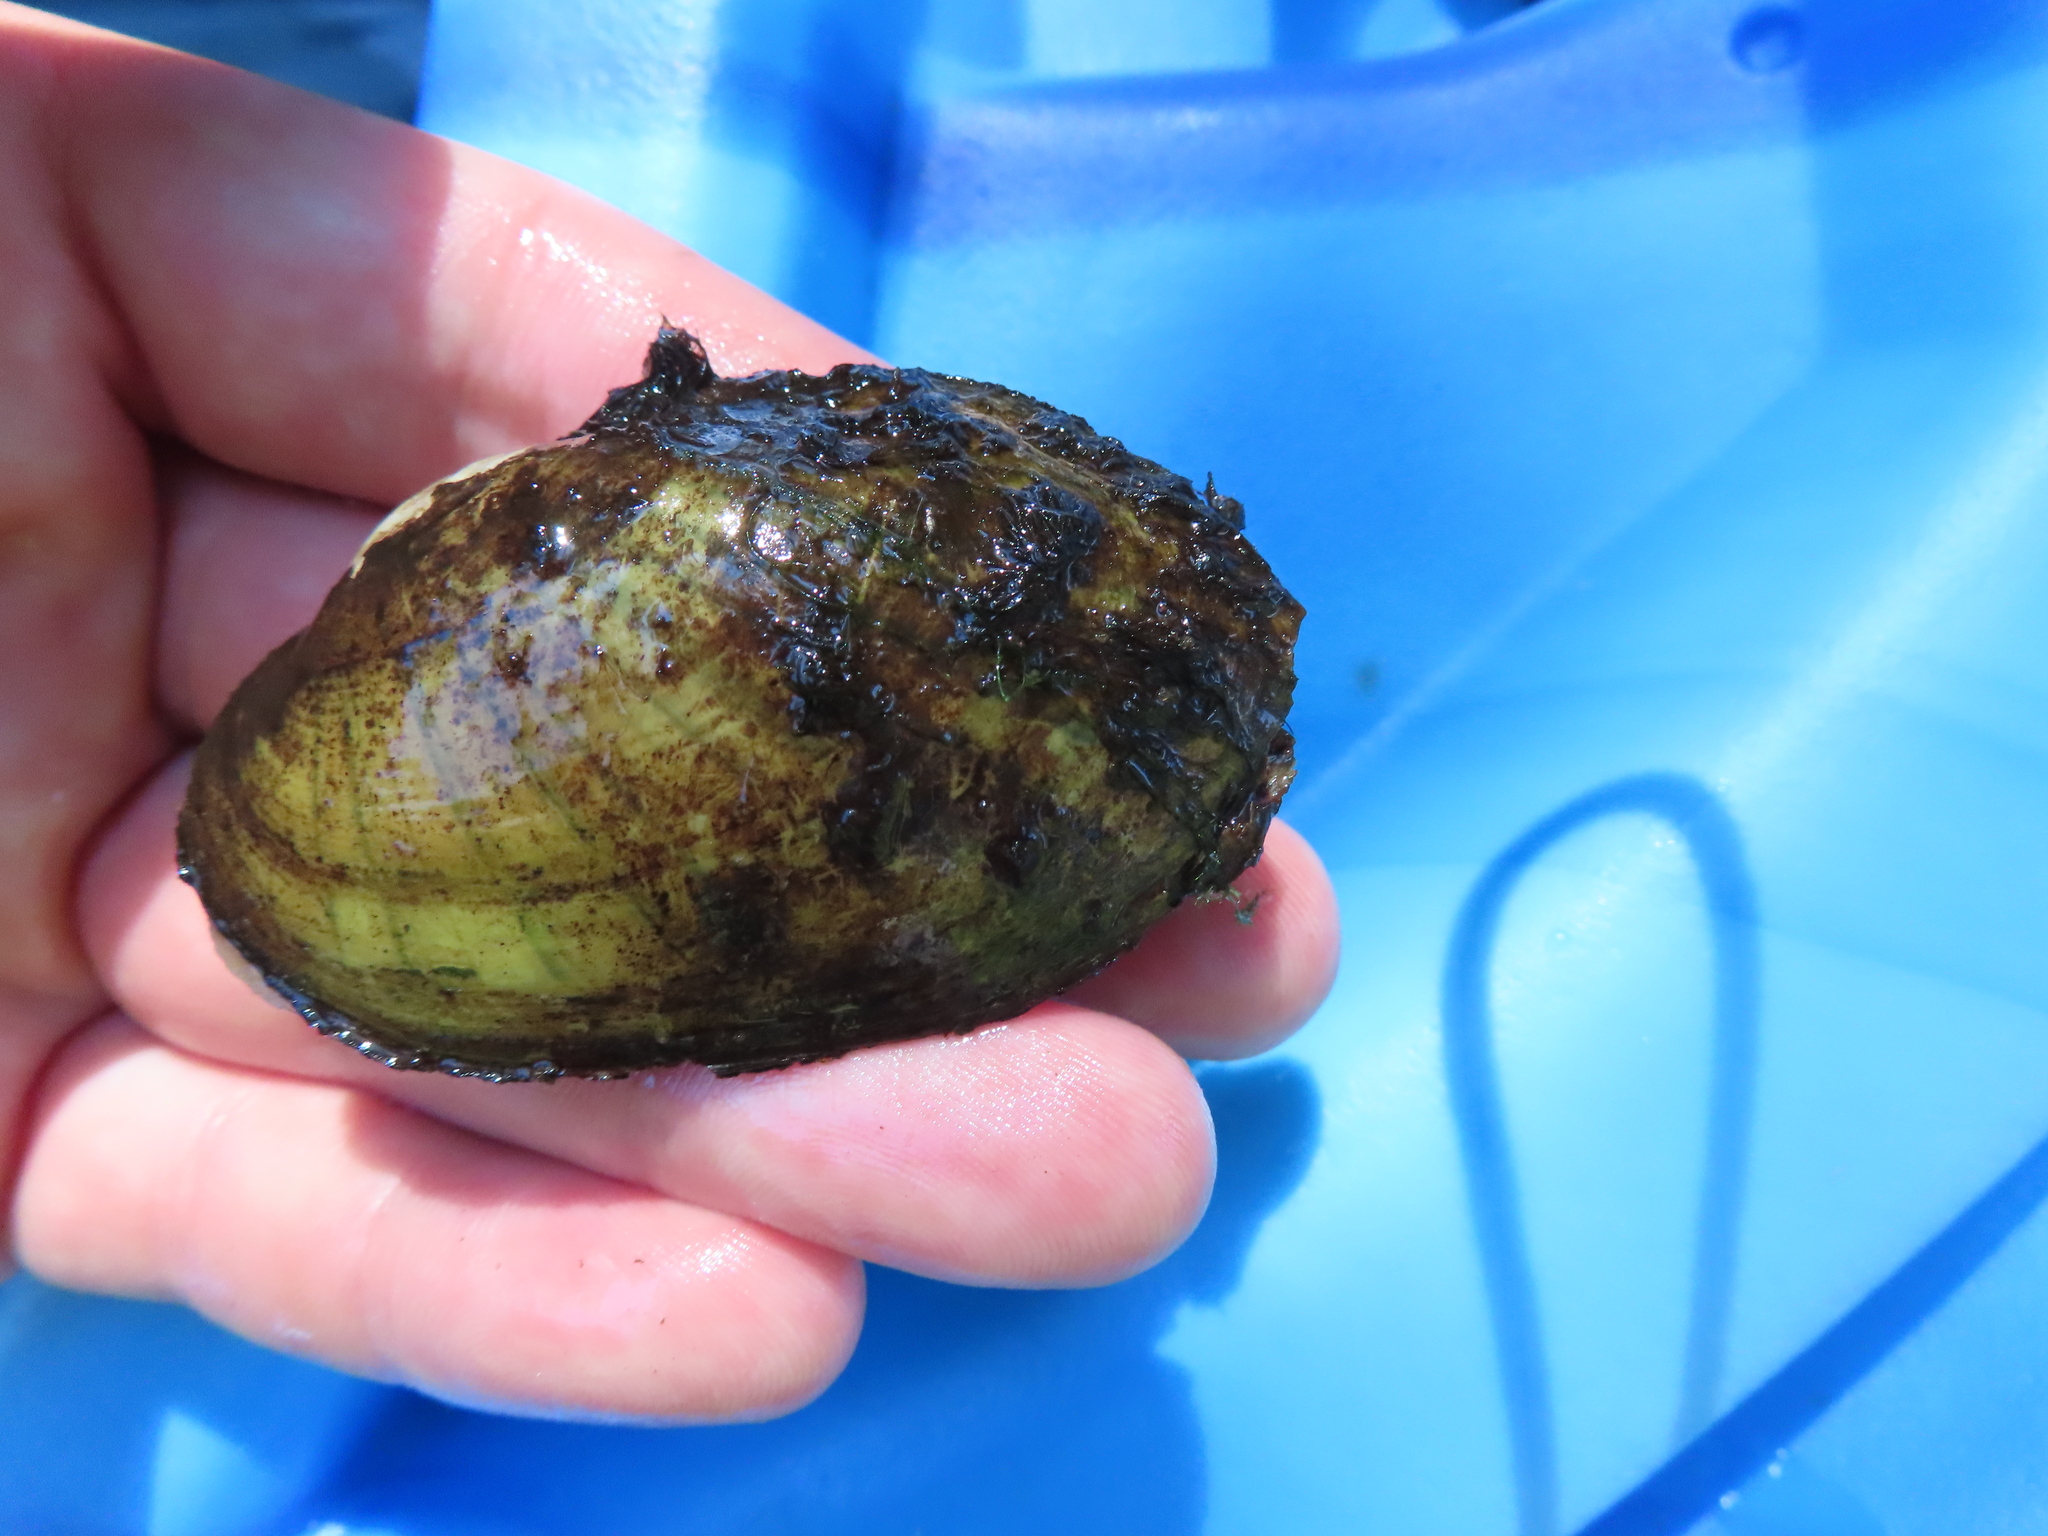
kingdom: Animalia
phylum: Mollusca
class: Bivalvia
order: Unionida
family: Unionidae
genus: Lampsilis
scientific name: Lampsilis siliquoidea
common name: Fatmucket
